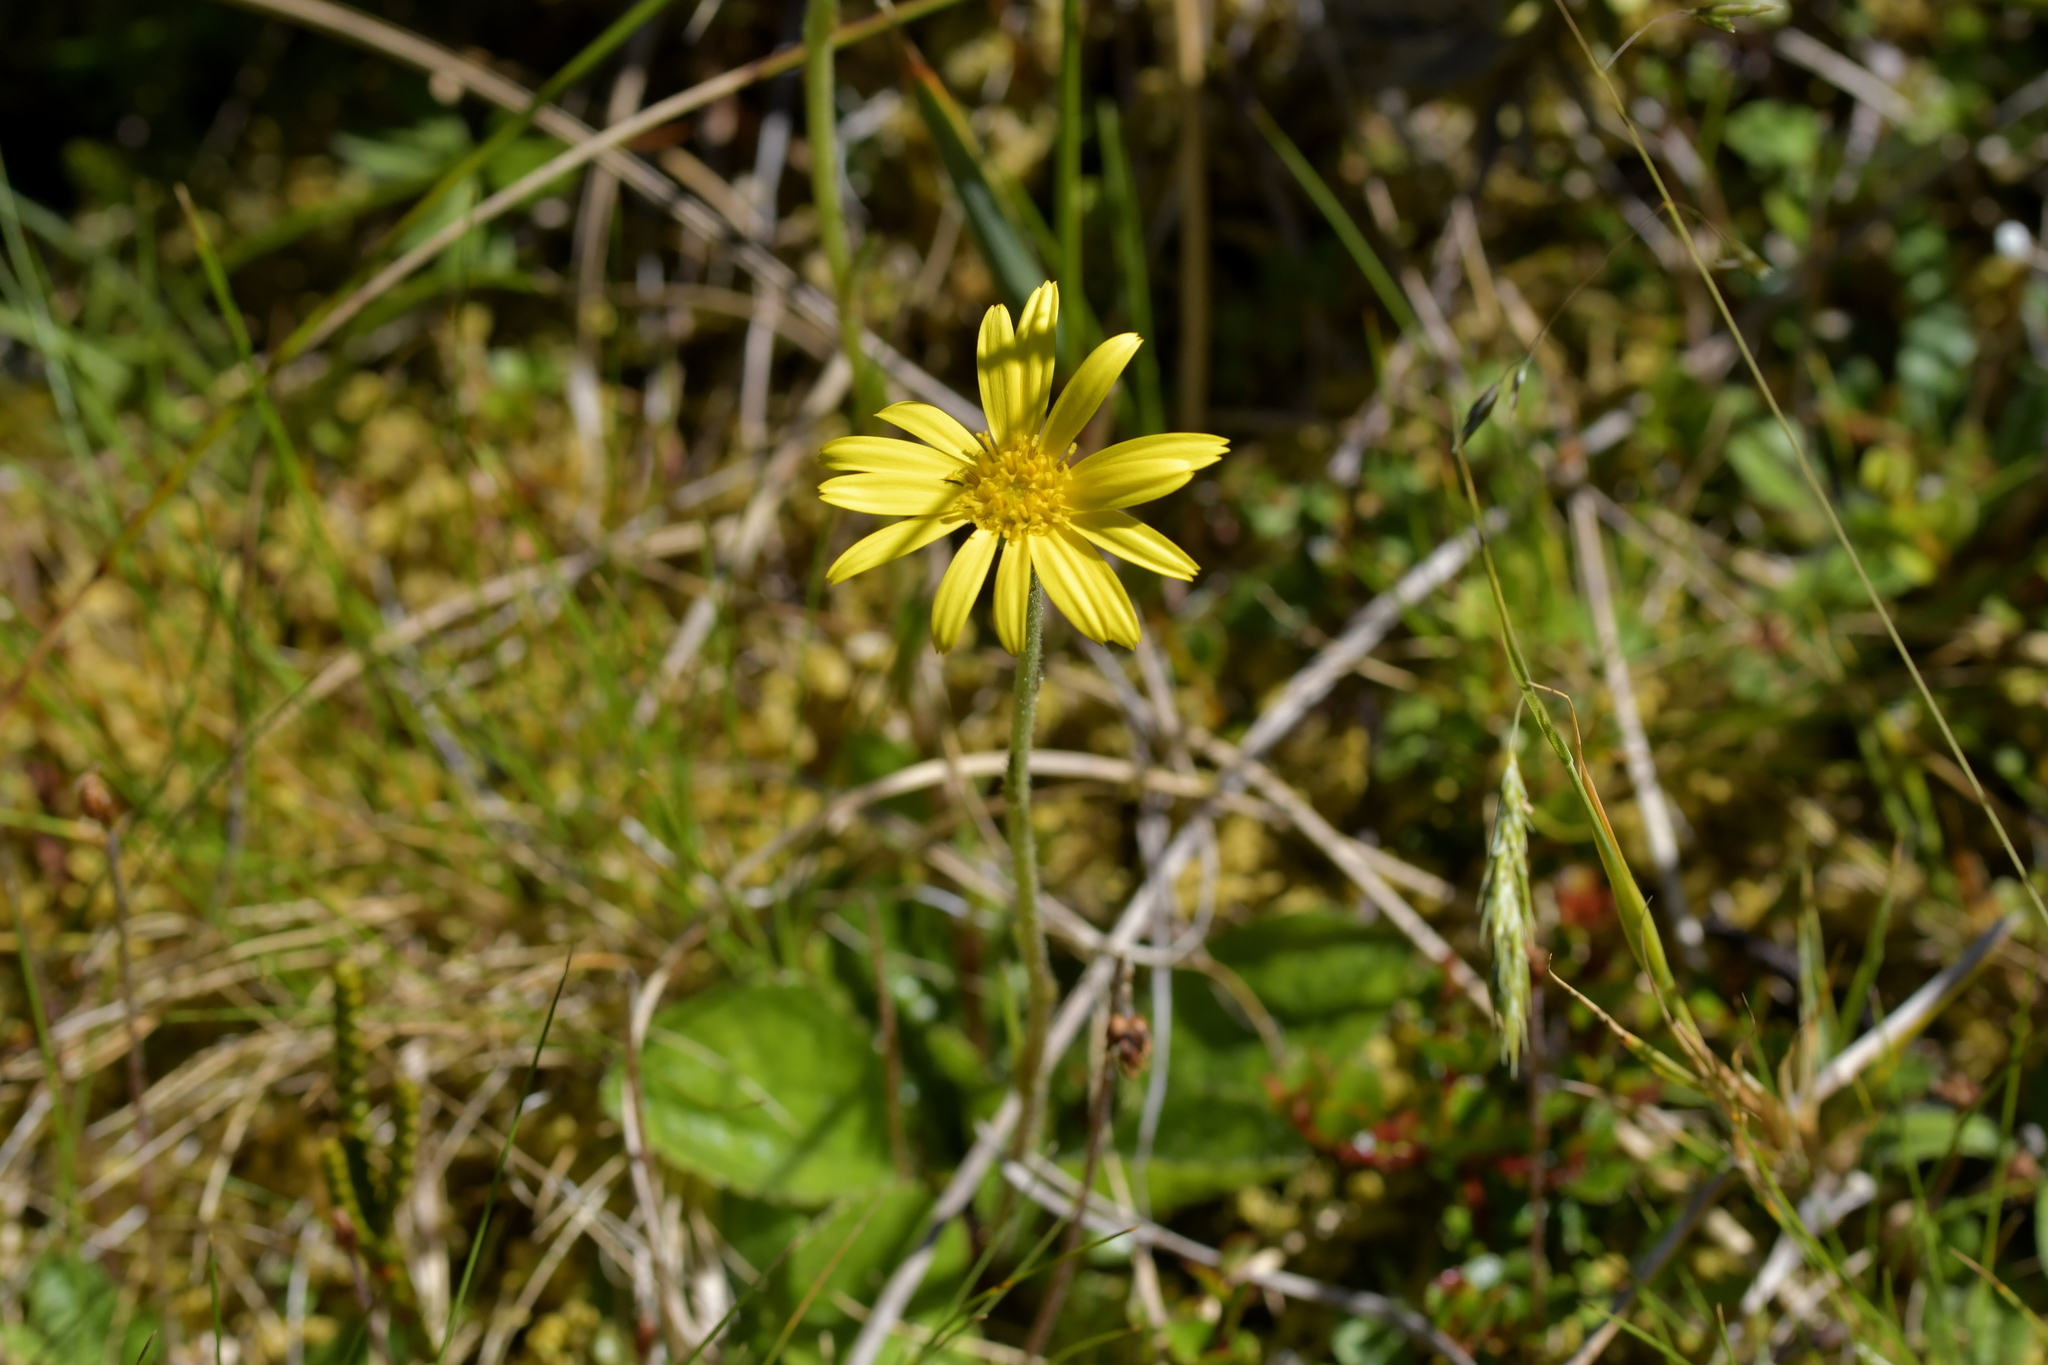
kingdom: Plantae
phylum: Tracheophyta
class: Magnoliopsida
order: Asterales
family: Asteraceae
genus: Brachyglottis
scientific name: Brachyglottis bellidioides
